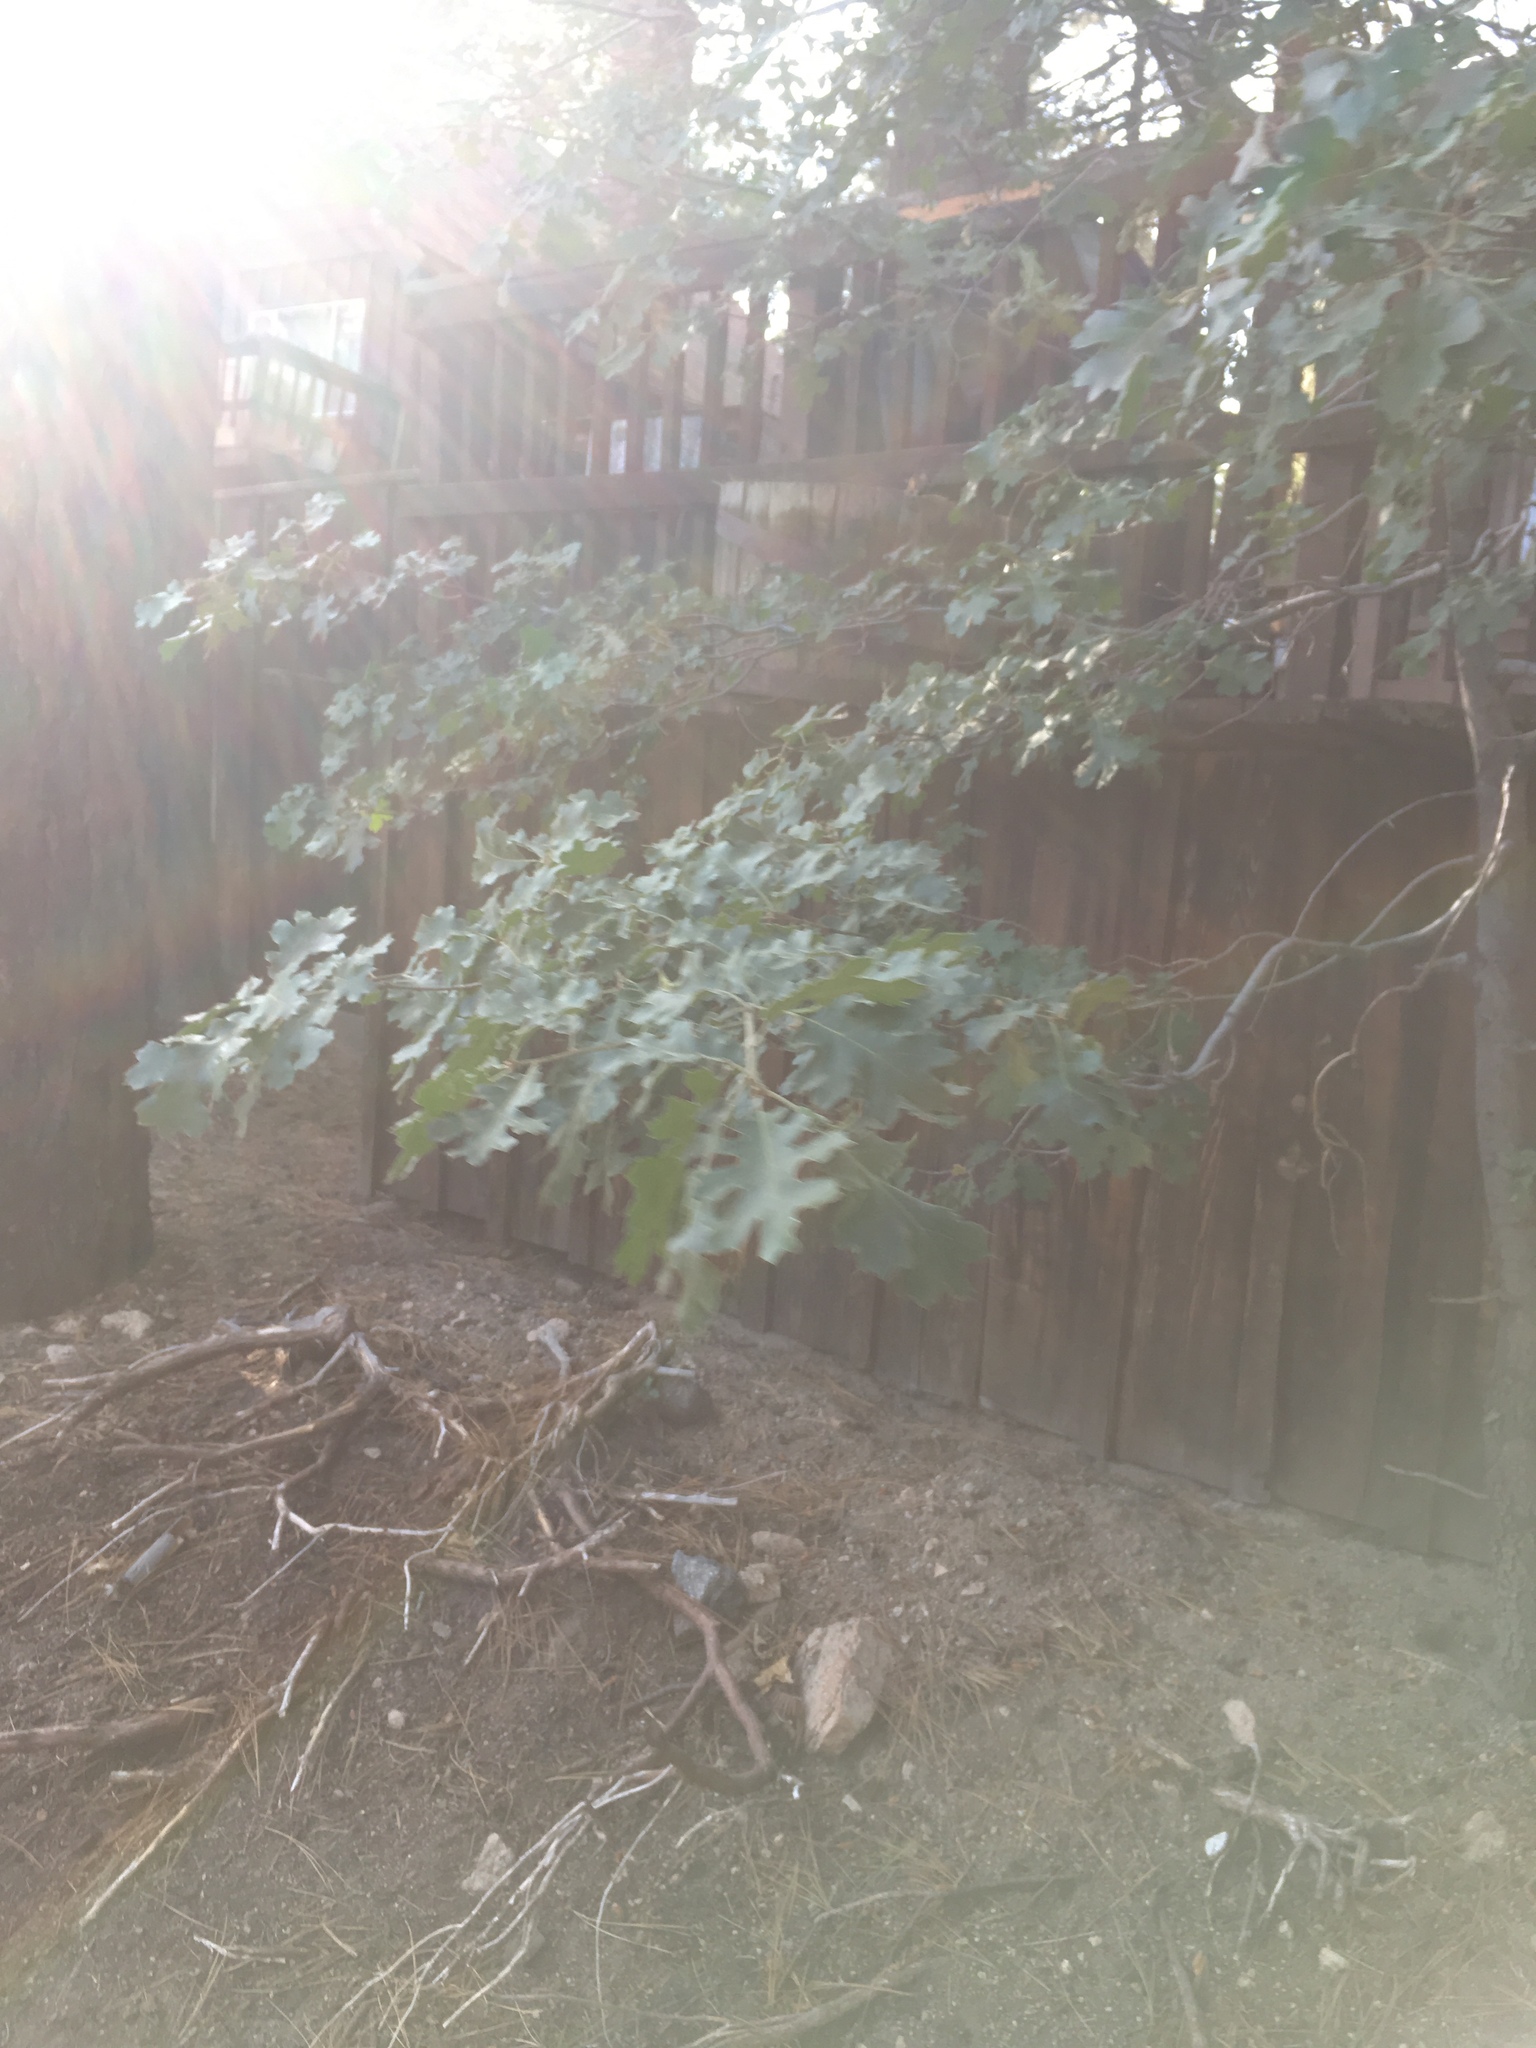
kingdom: Plantae
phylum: Tracheophyta
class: Magnoliopsida
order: Fagales
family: Fagaceae
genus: Quercus
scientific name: Quercus kelloggii
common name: California black oak
